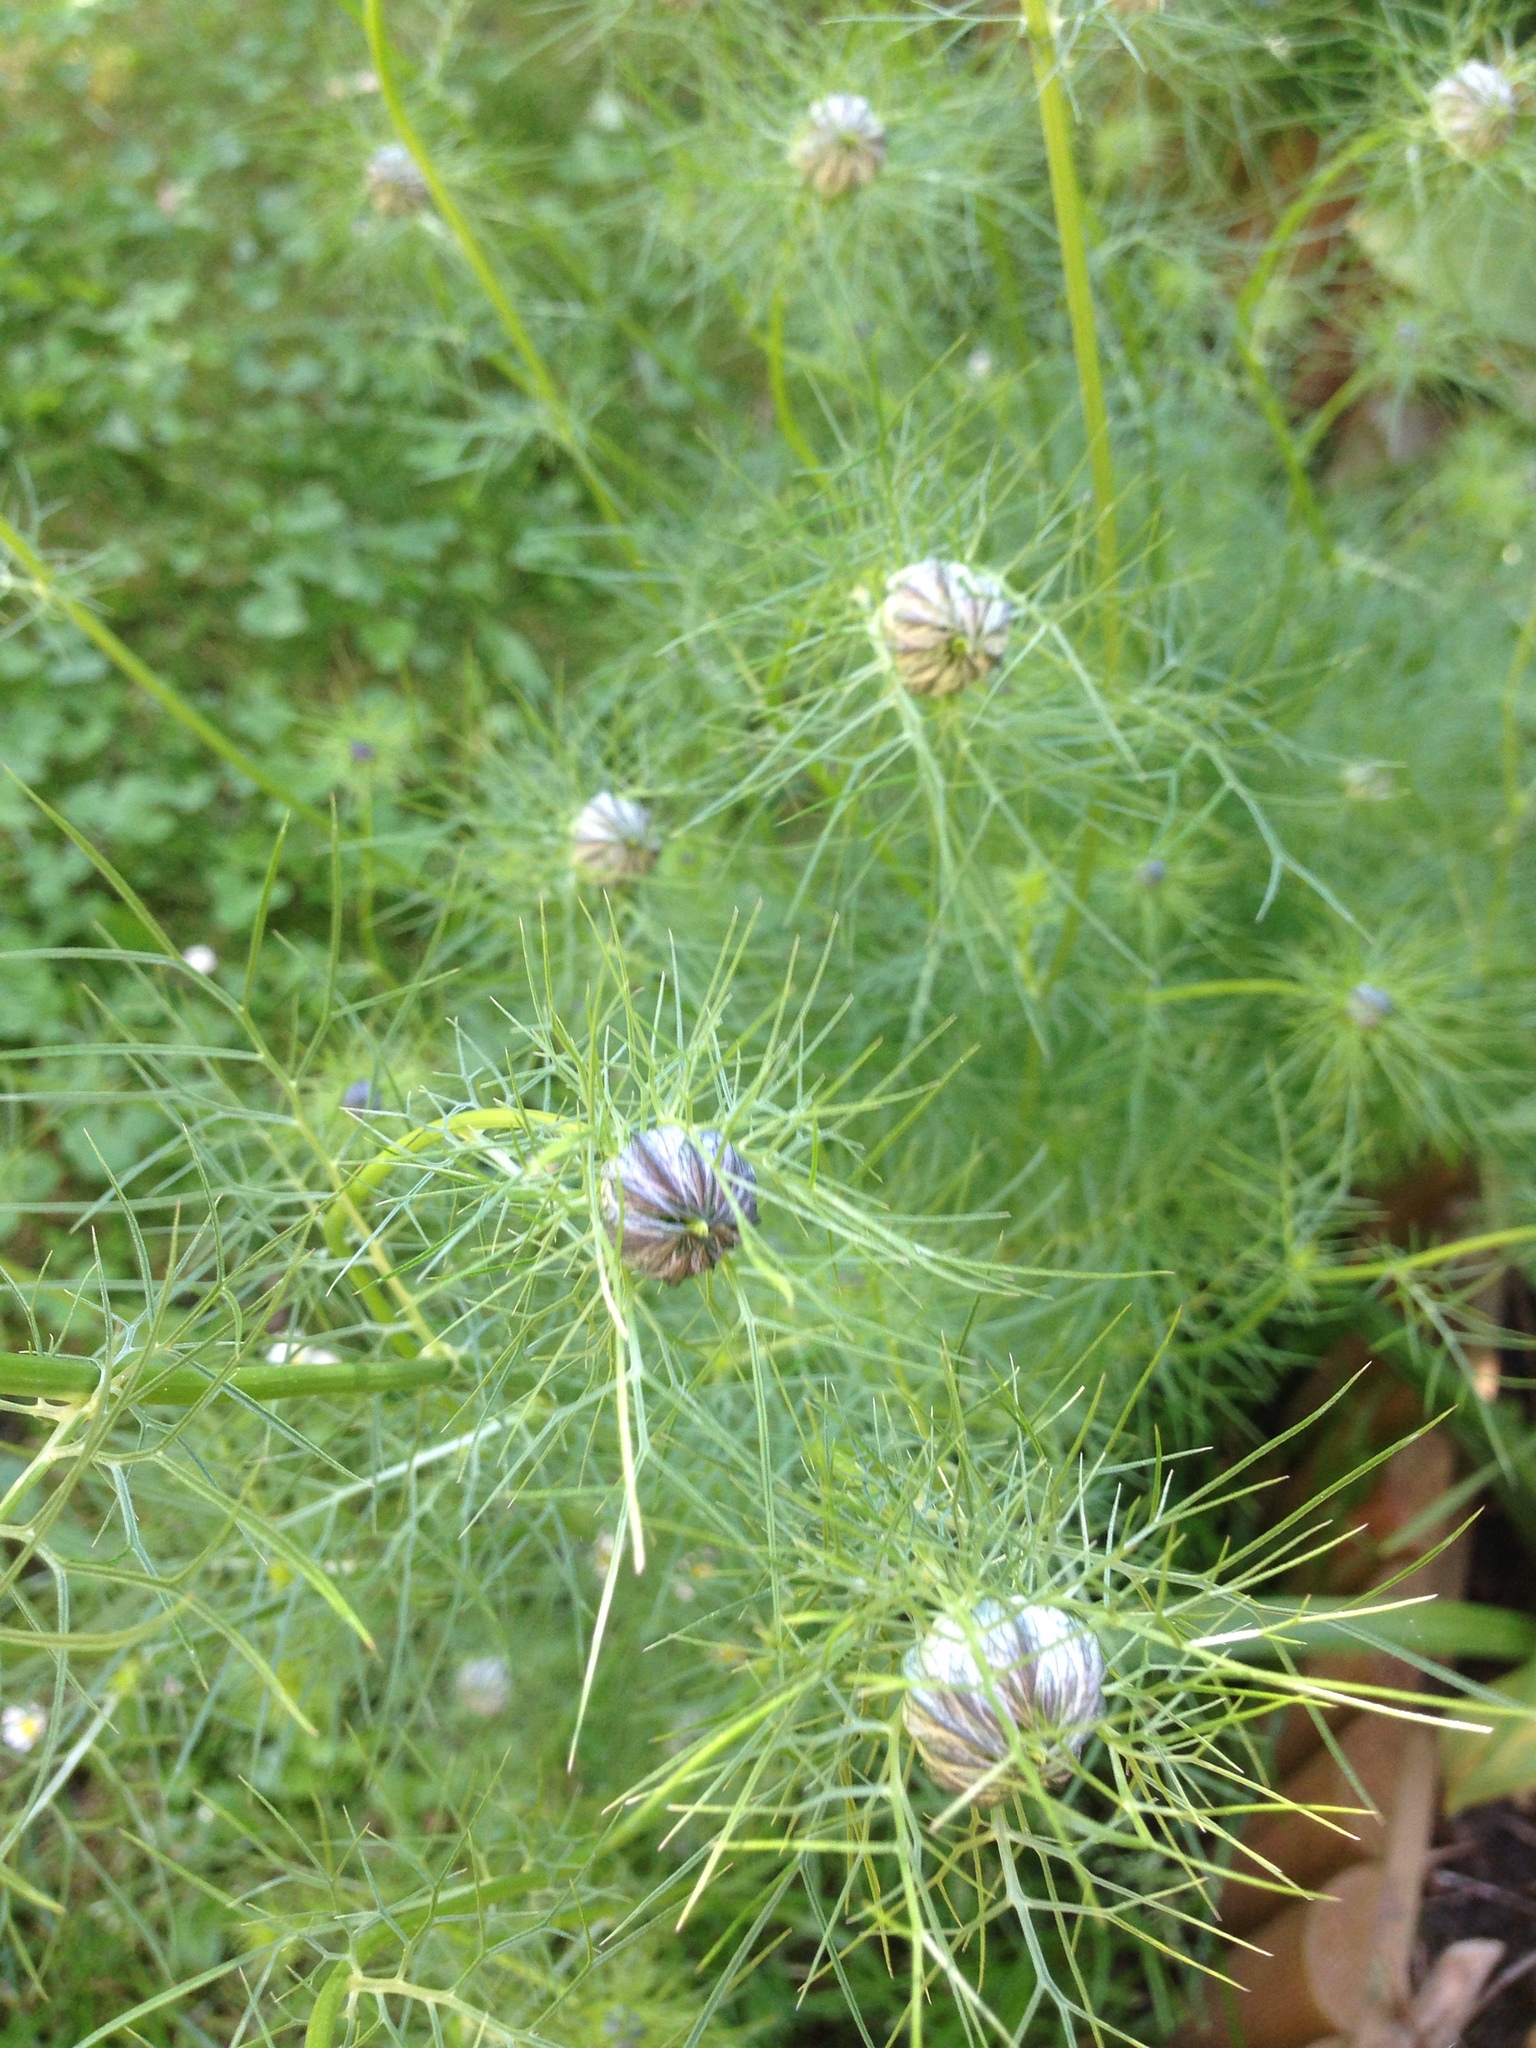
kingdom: Plantae
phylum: Tracheophyta
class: Magnoliopsida
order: Ranunculales
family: Ranunculaceae
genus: Nigella
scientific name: Nigella damascena
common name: Love-in-a-mist
